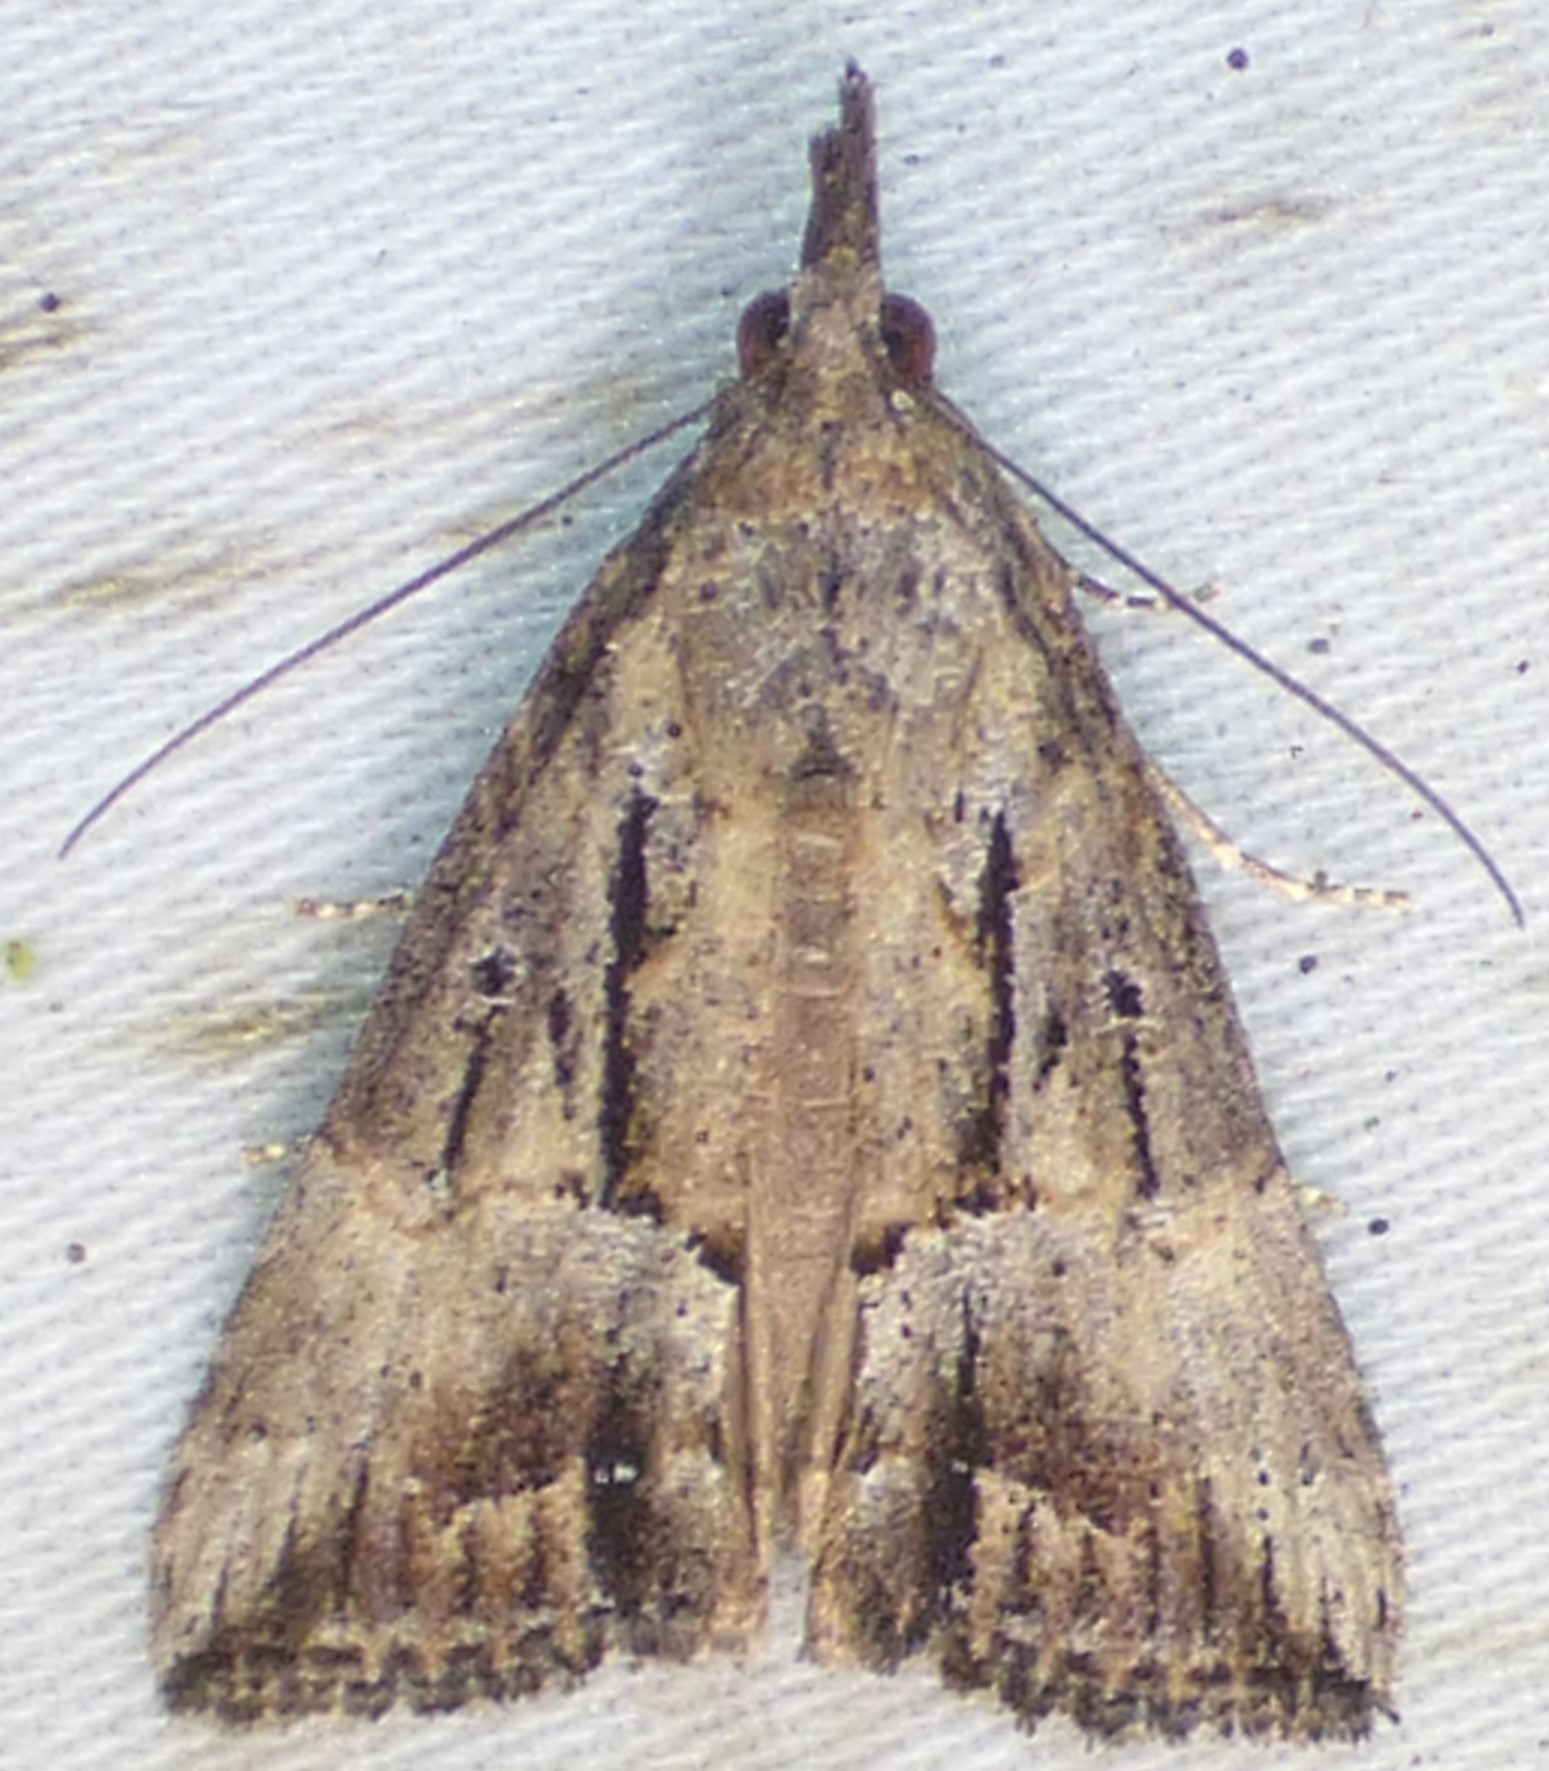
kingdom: Animalia
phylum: Arthropoda
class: Insecta
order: Lepidoptera
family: Erebidae
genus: Hypena
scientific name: Hypena scabra
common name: Green cloverworm
